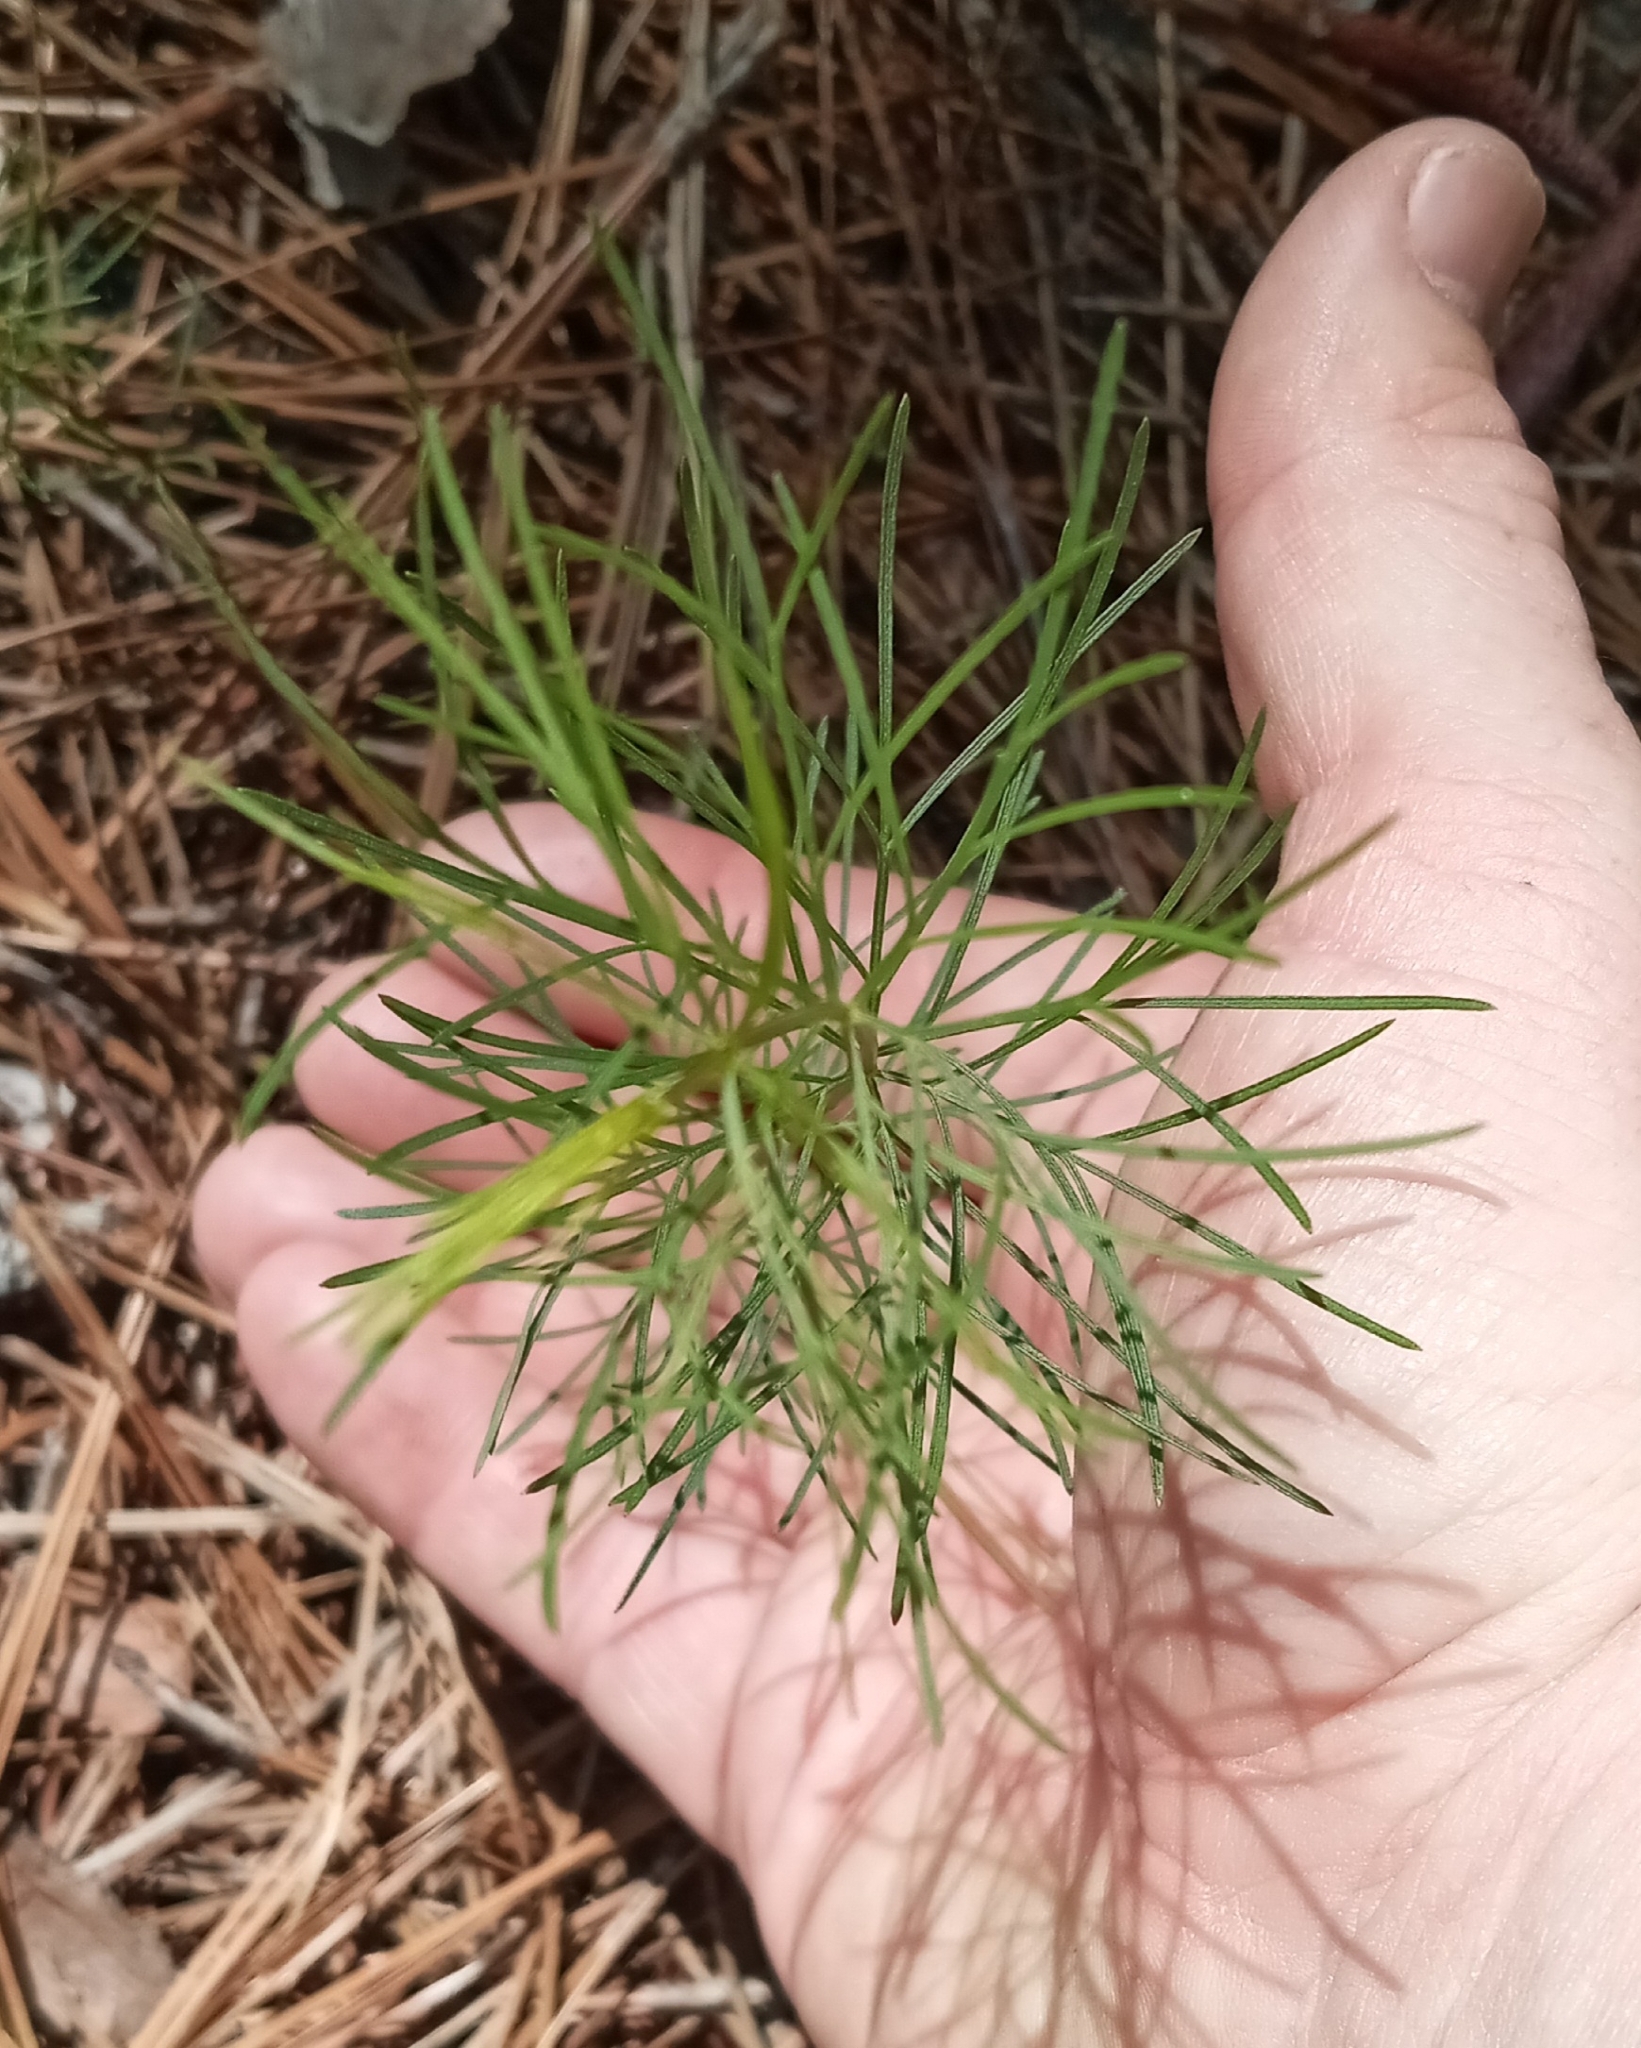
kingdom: Plantae
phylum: Tracheophyta
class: Magnoliopsida
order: Asterales
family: Asteraceae
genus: Coreopsis
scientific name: Coreopsis verticillata
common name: Whorled tickseed
